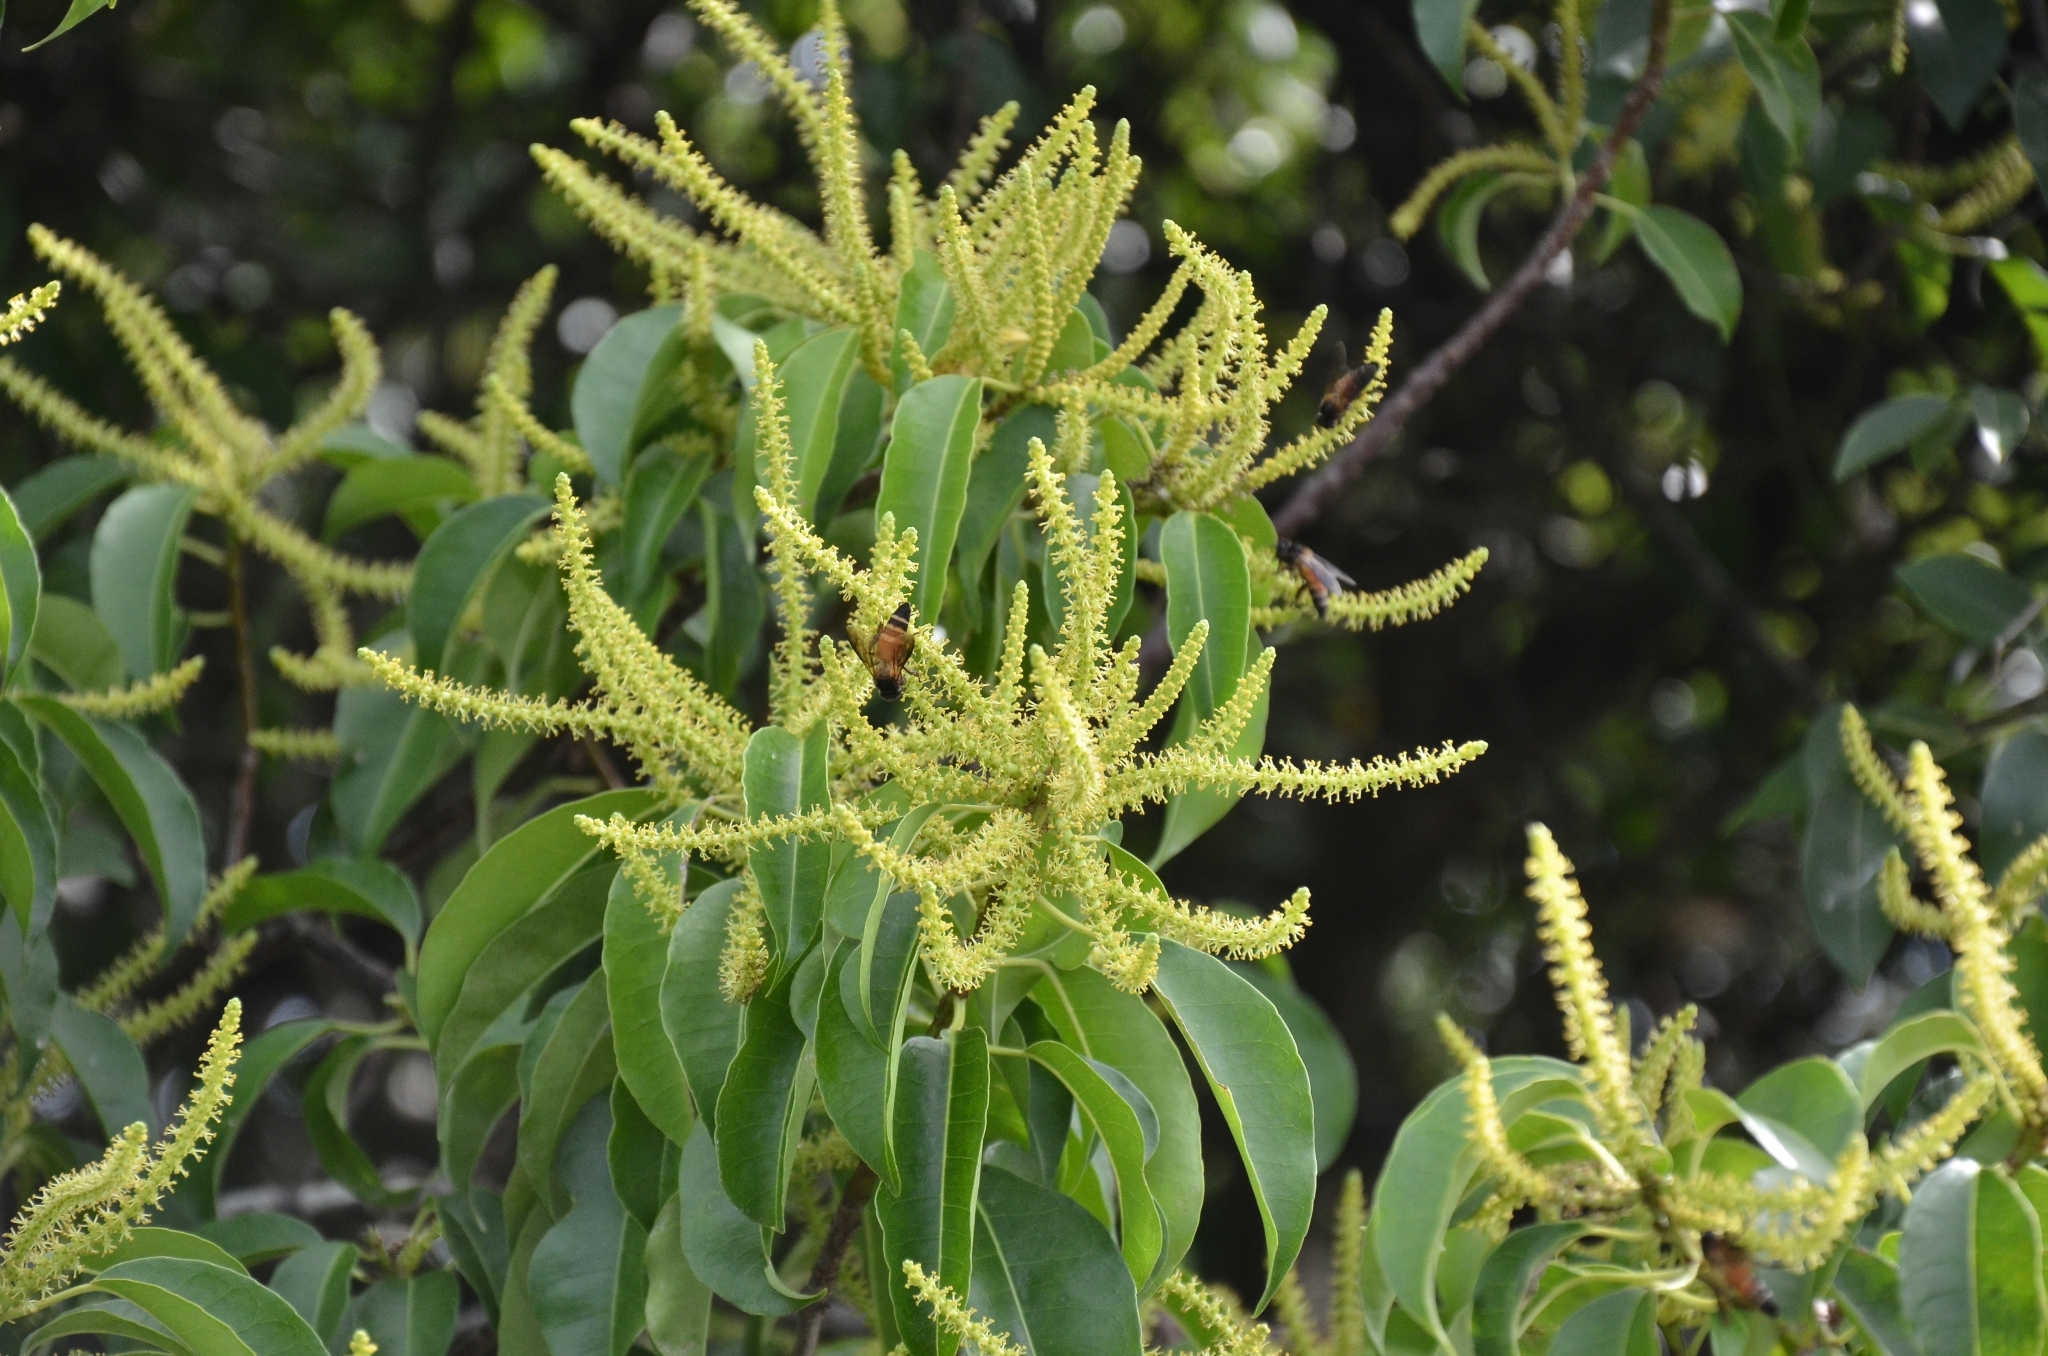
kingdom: Plantae
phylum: Tracheophyta
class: Magnoliopsida
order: Malpighiales
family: Euphorbiaceae
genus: Excoecaria
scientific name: Excoecaria agallocha
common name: River poisontree
